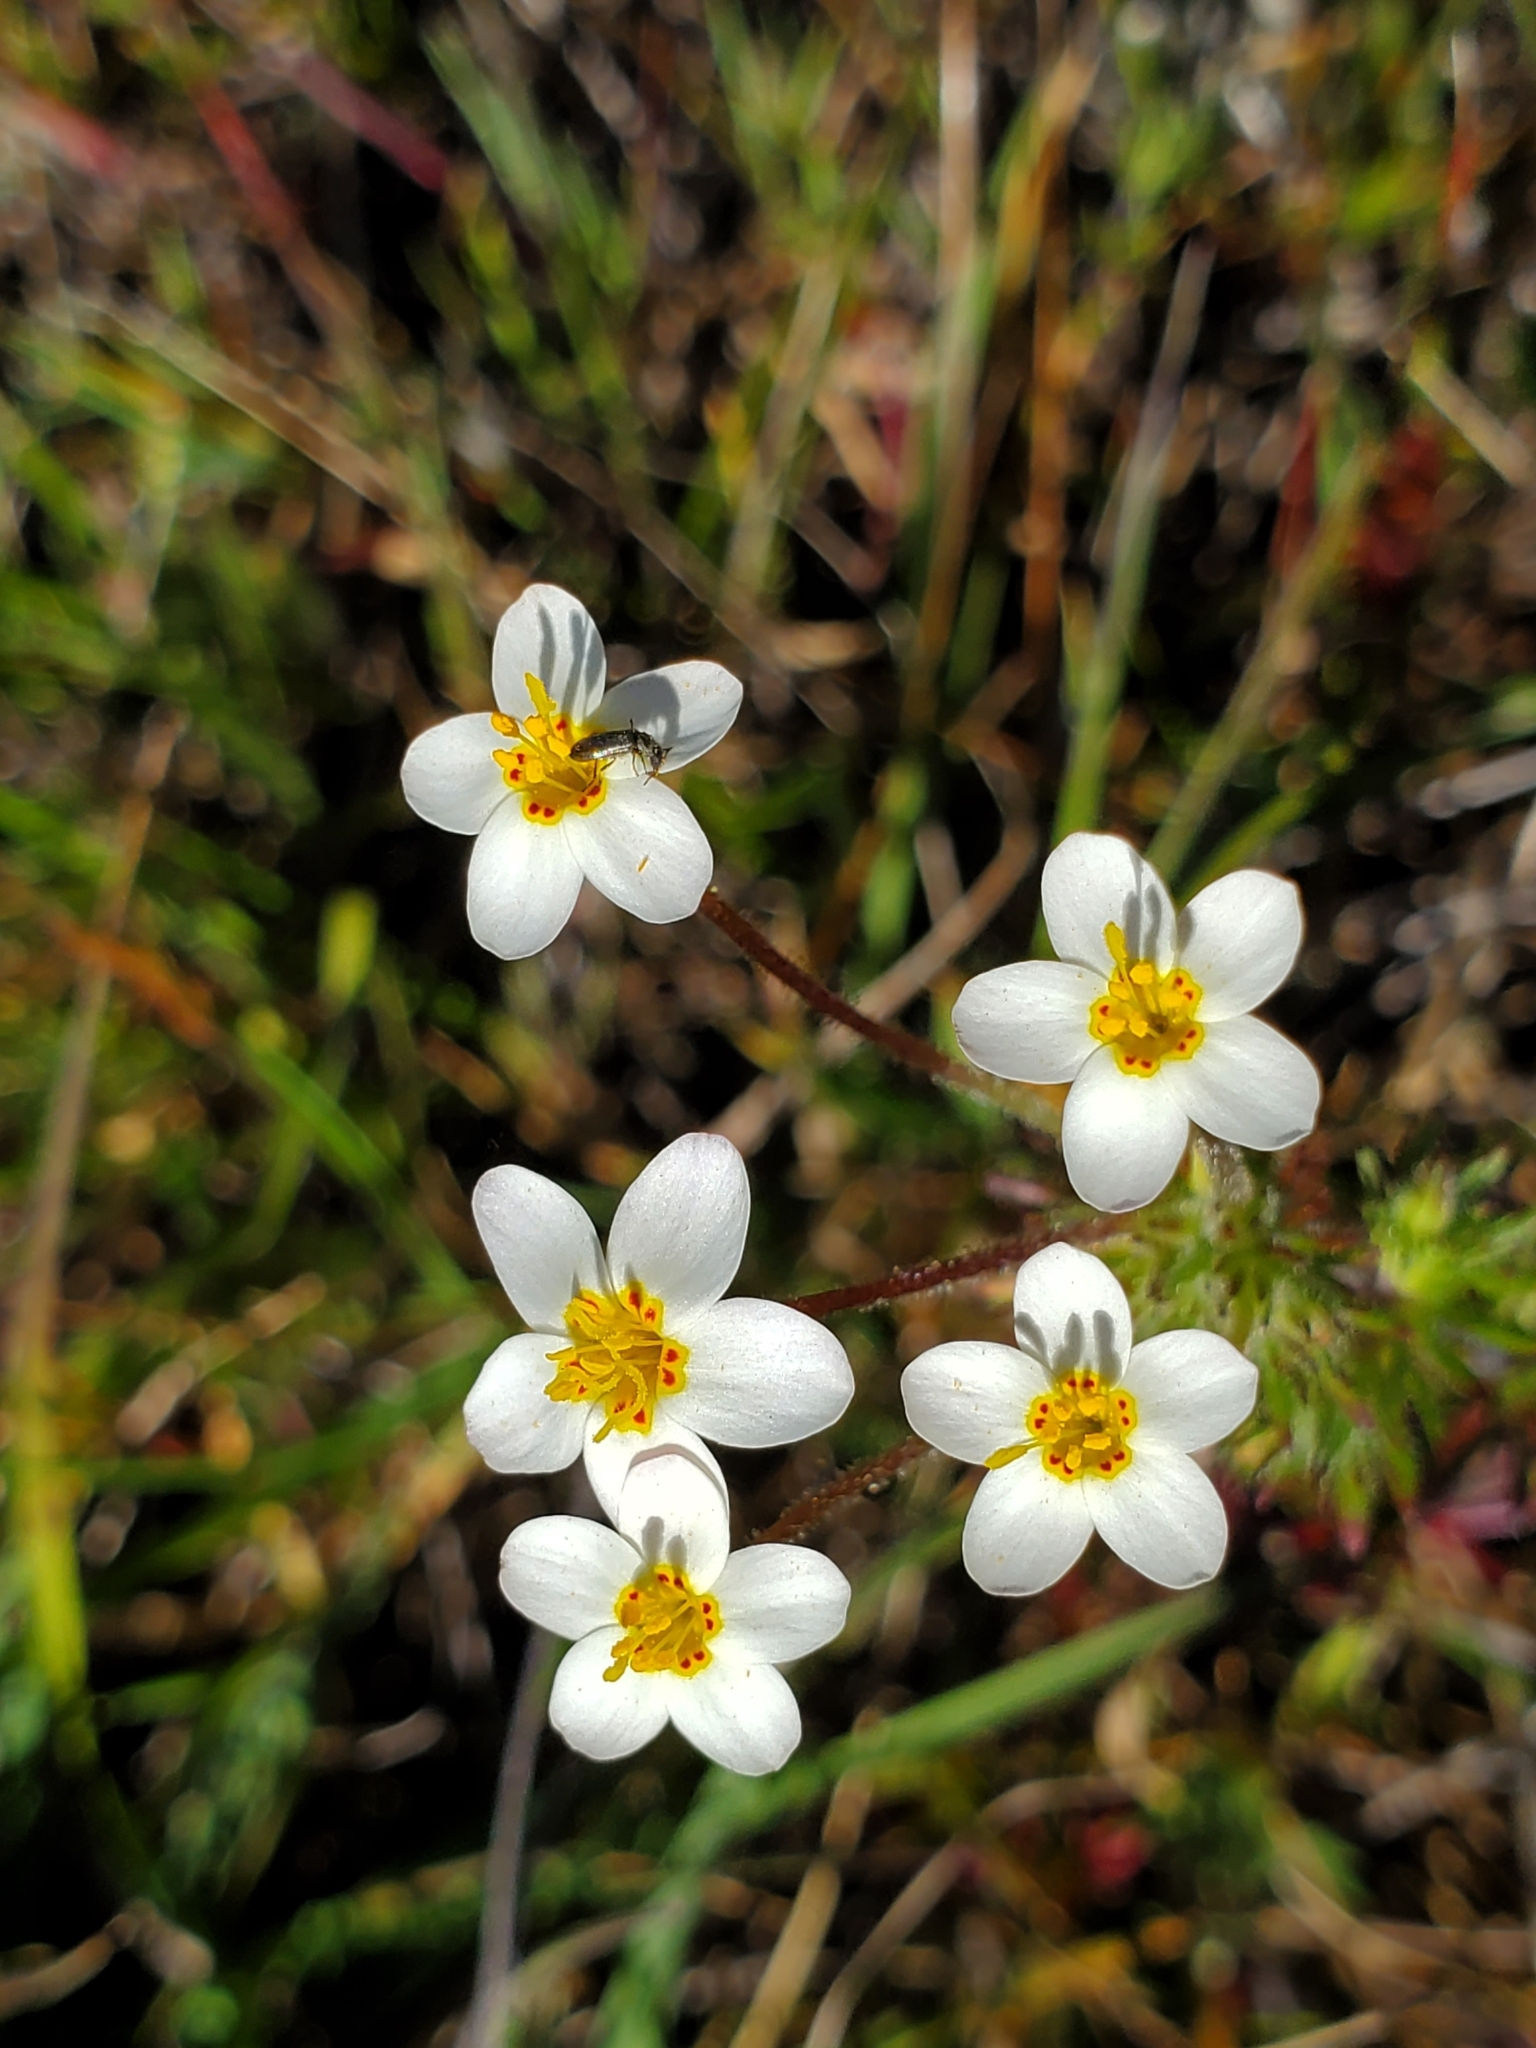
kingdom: Plantae
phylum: Tracheophyta
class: Magnoliopsida
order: Ericales
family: Polemoniaceae
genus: Leptosiphon
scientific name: Leptosiphon parviflorus
